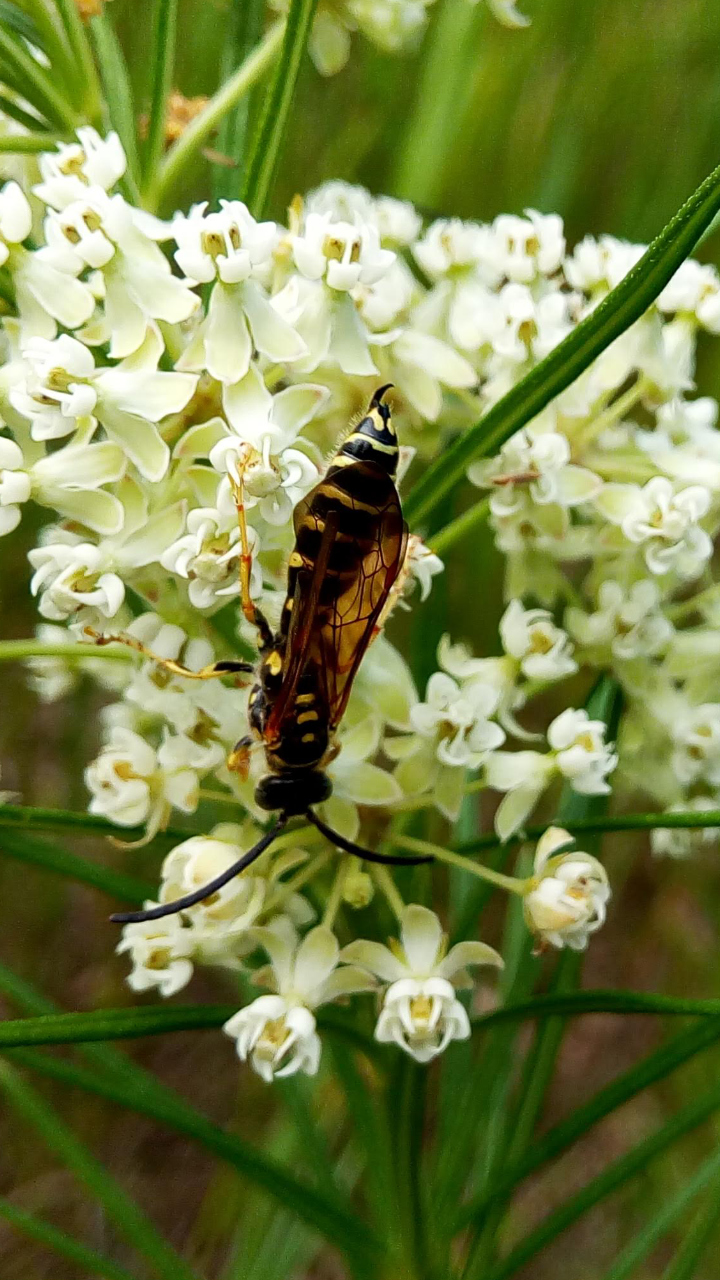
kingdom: Animalia
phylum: Arthropoda
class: Insecta
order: Hymenoptera
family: Tiphiidae
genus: Myzinum
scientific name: Myzinum quinquecinctum
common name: Five-banded thynnid wasp
